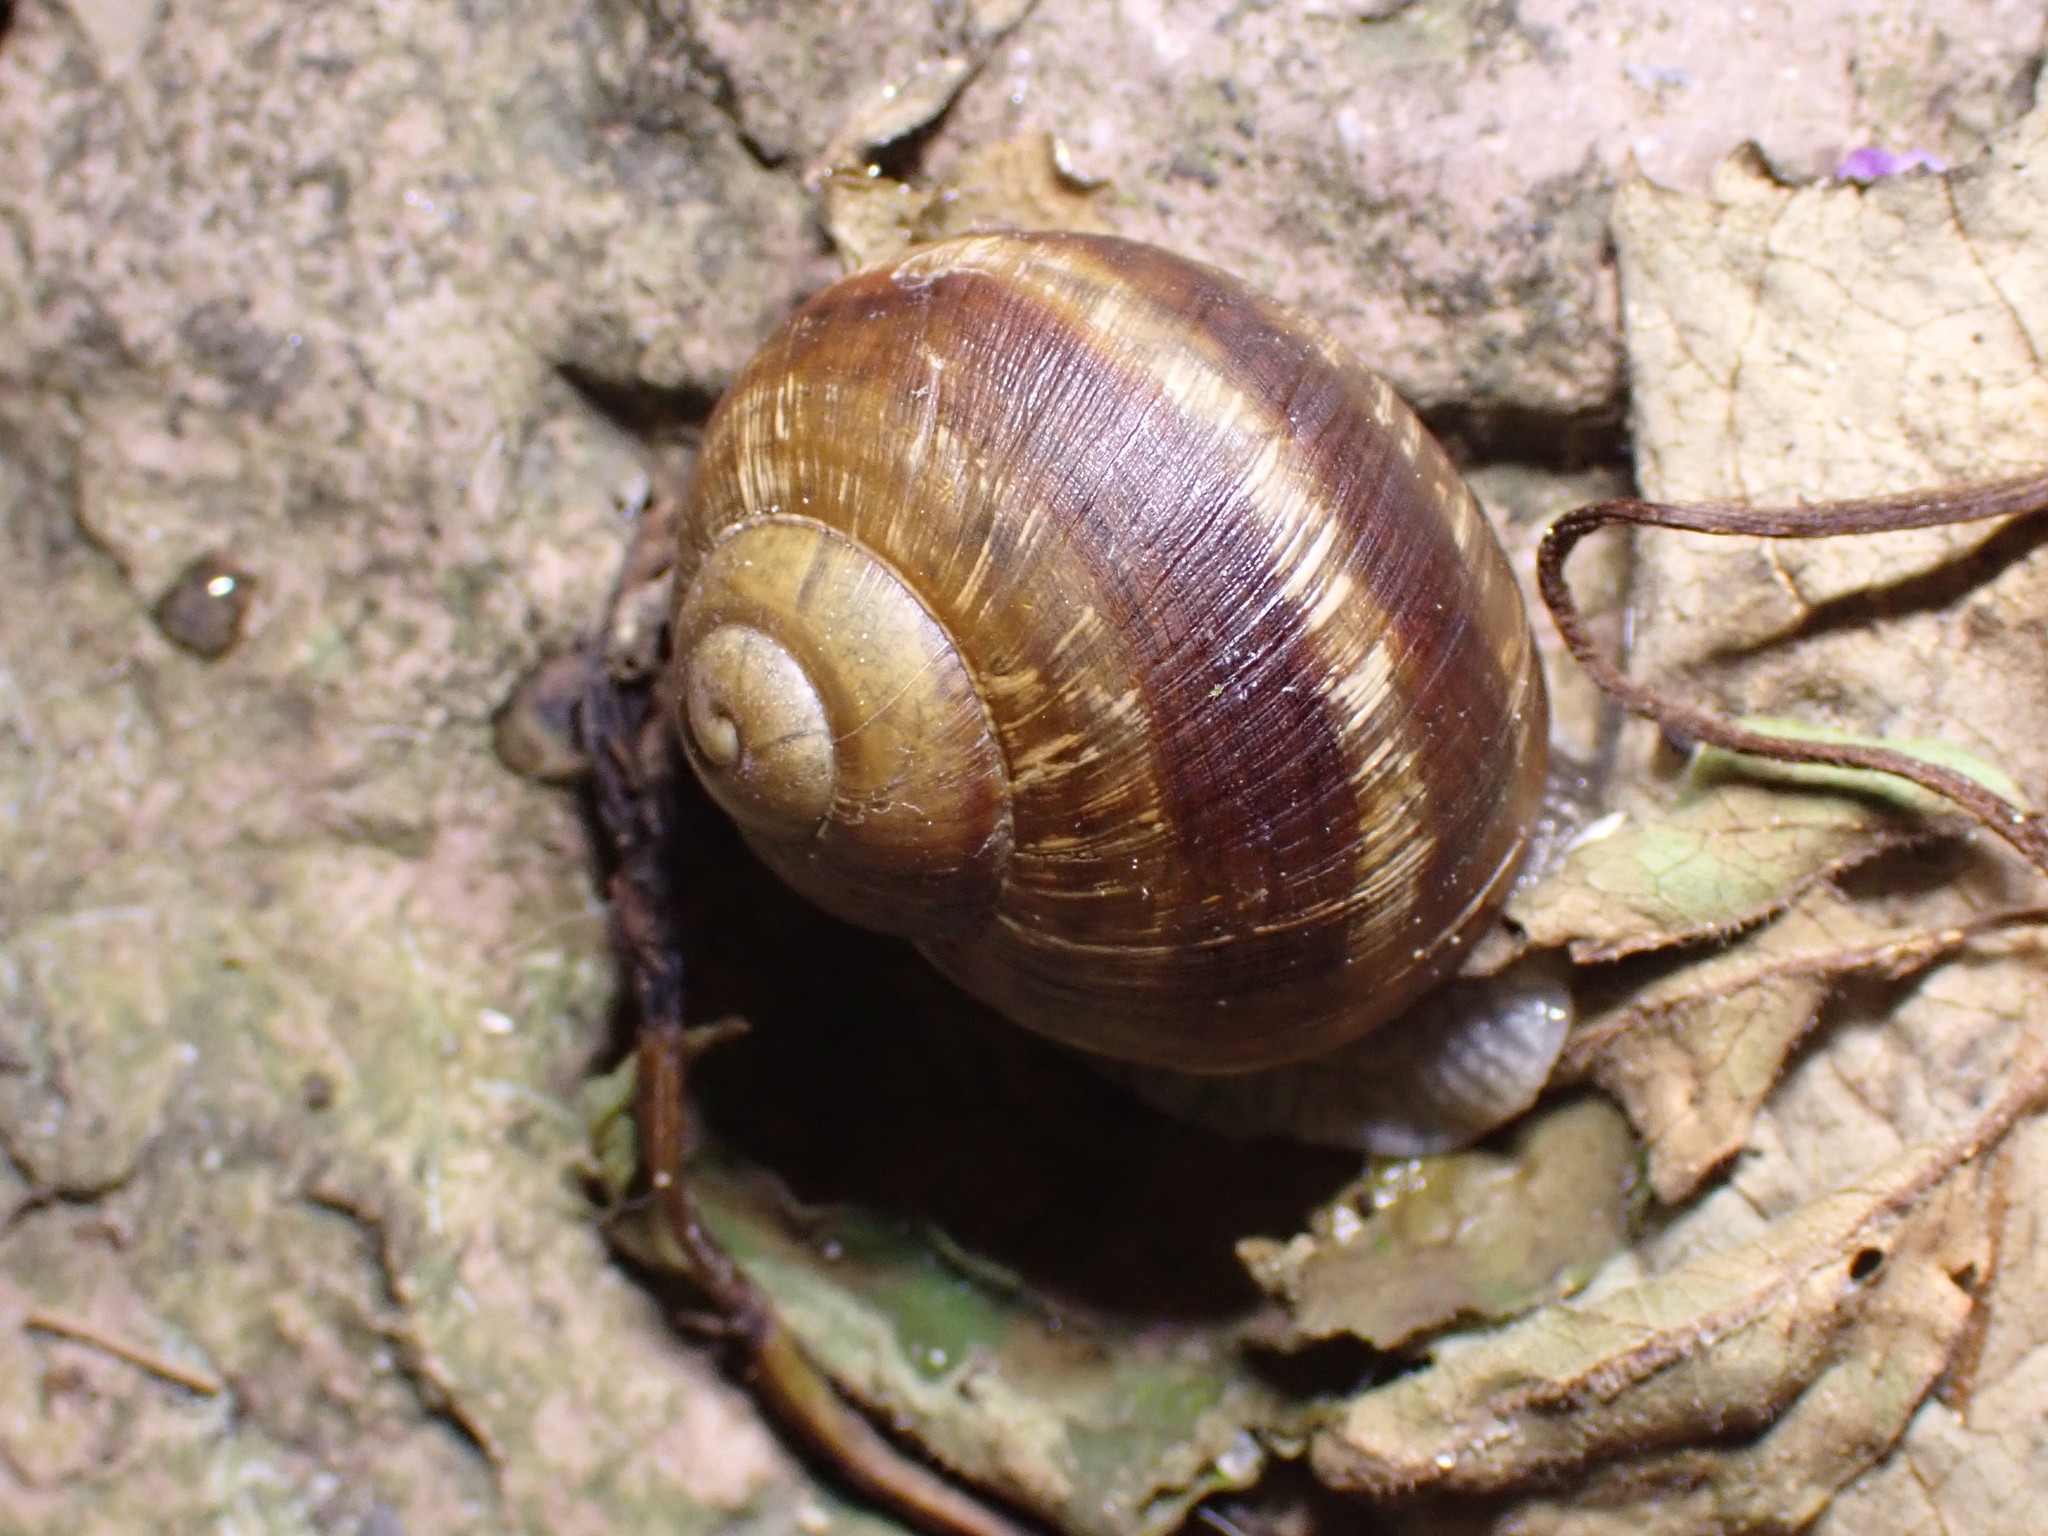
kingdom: Animalia
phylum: Mollusca
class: Gastropoda
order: Stylommatophora
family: Helicidae
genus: Helix
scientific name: Helix pomatia
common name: Roman snail
